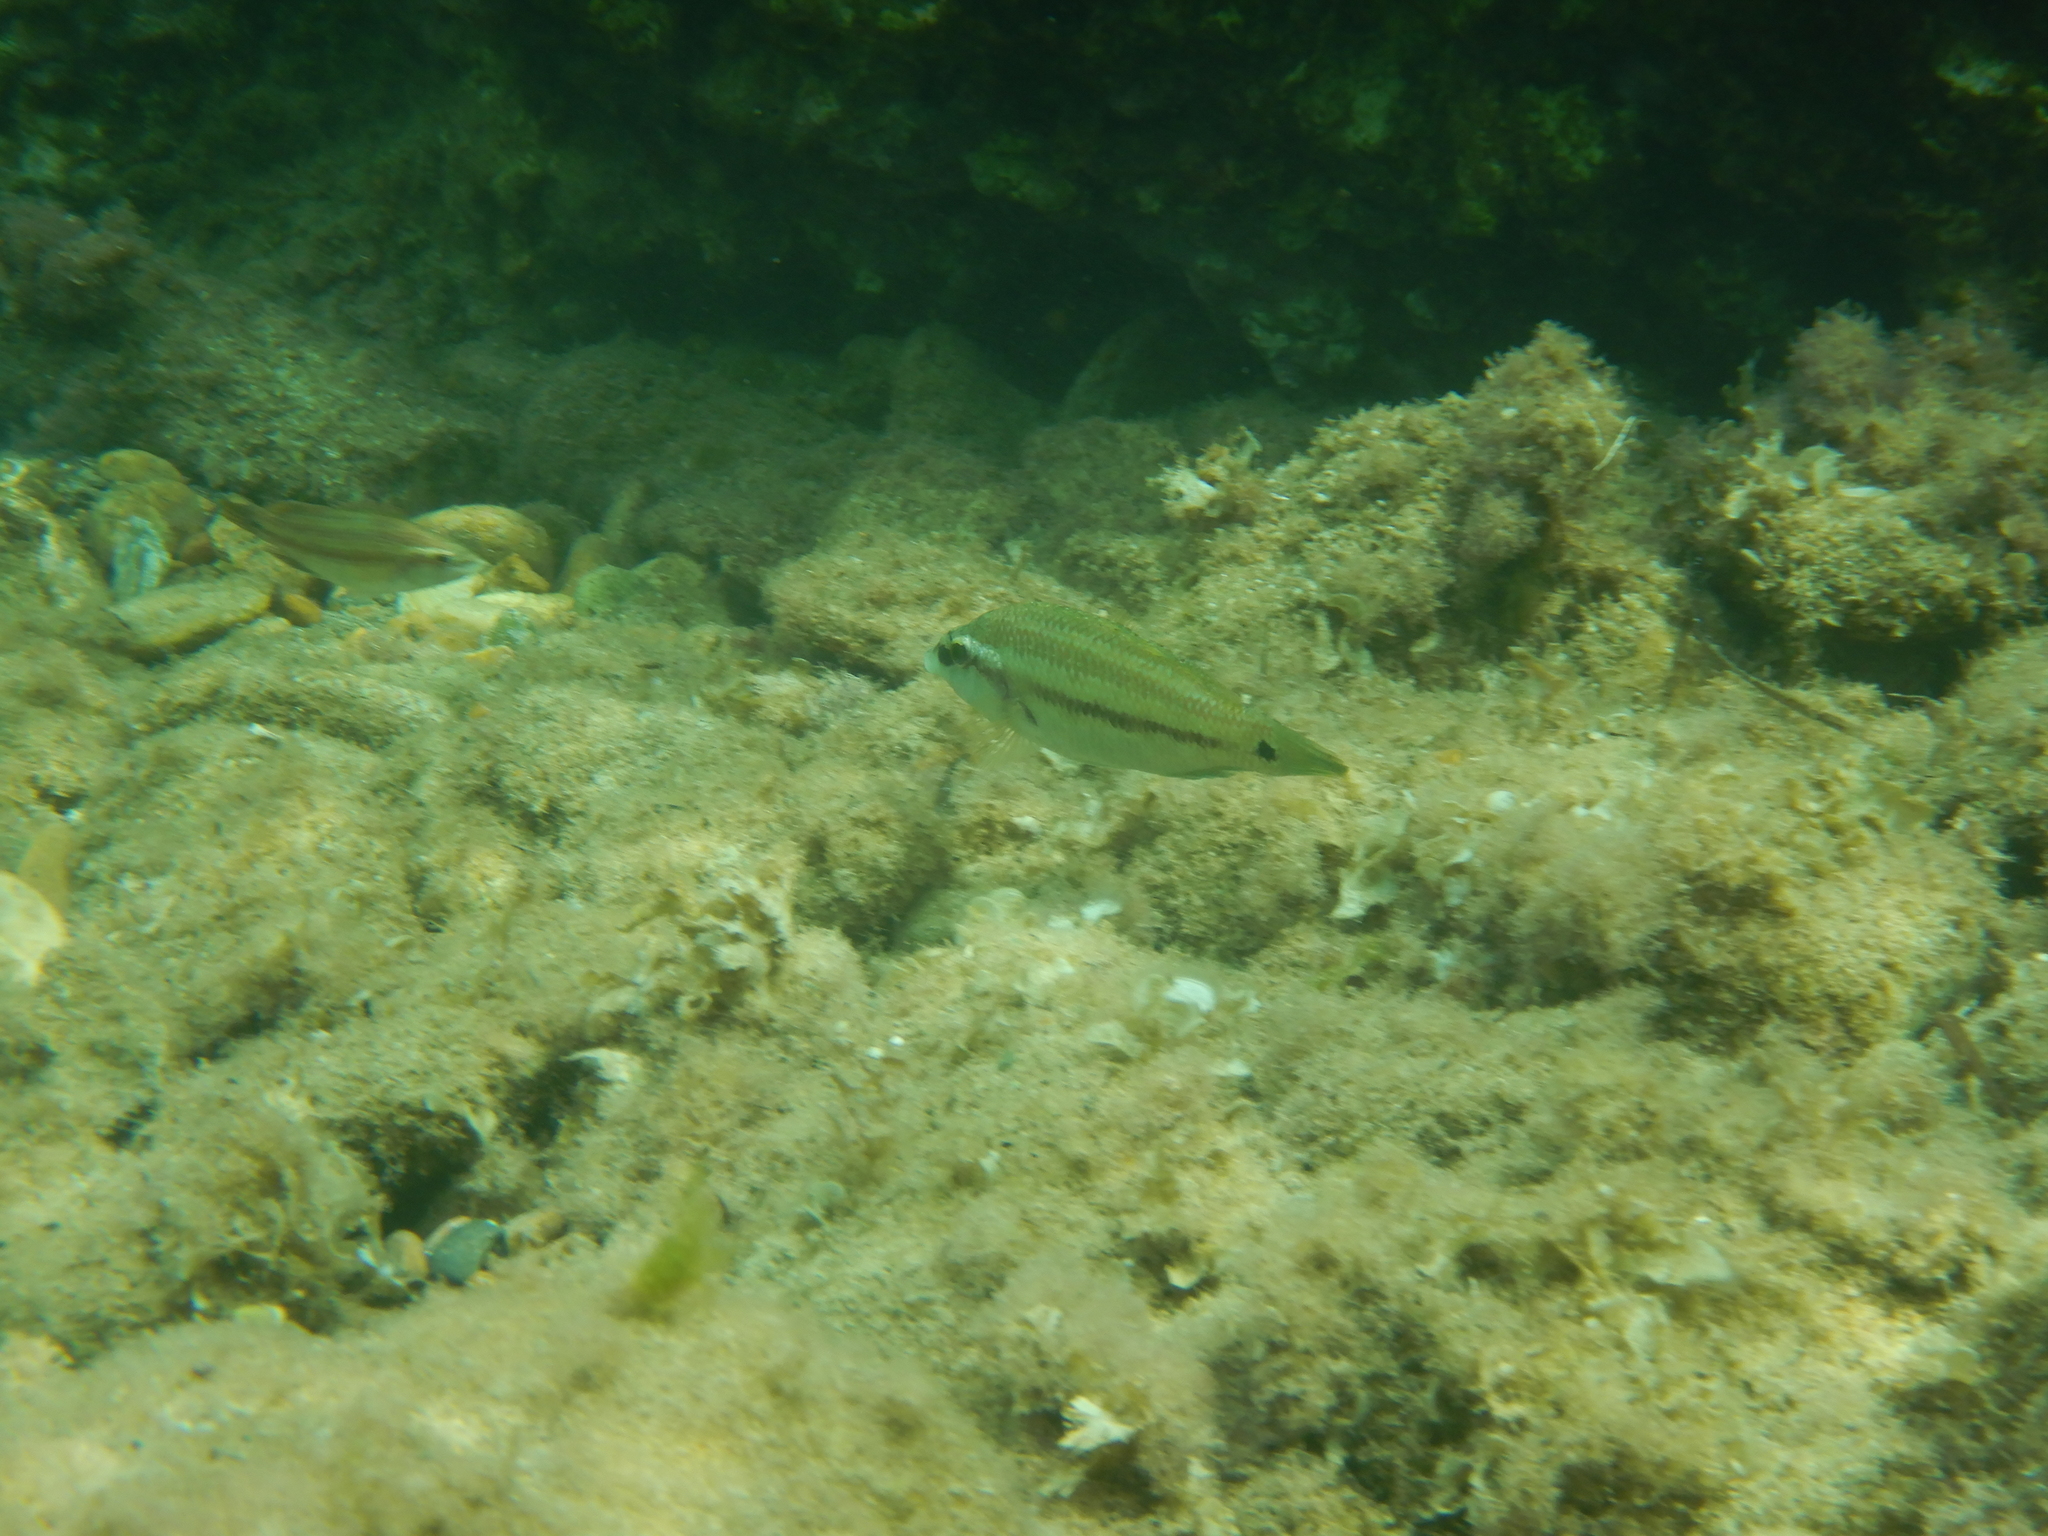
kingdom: Animalia
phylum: Chordata
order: Perciformes
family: Labridae
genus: Symphodus
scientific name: Symphodus tinca
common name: Peacock wrasse
